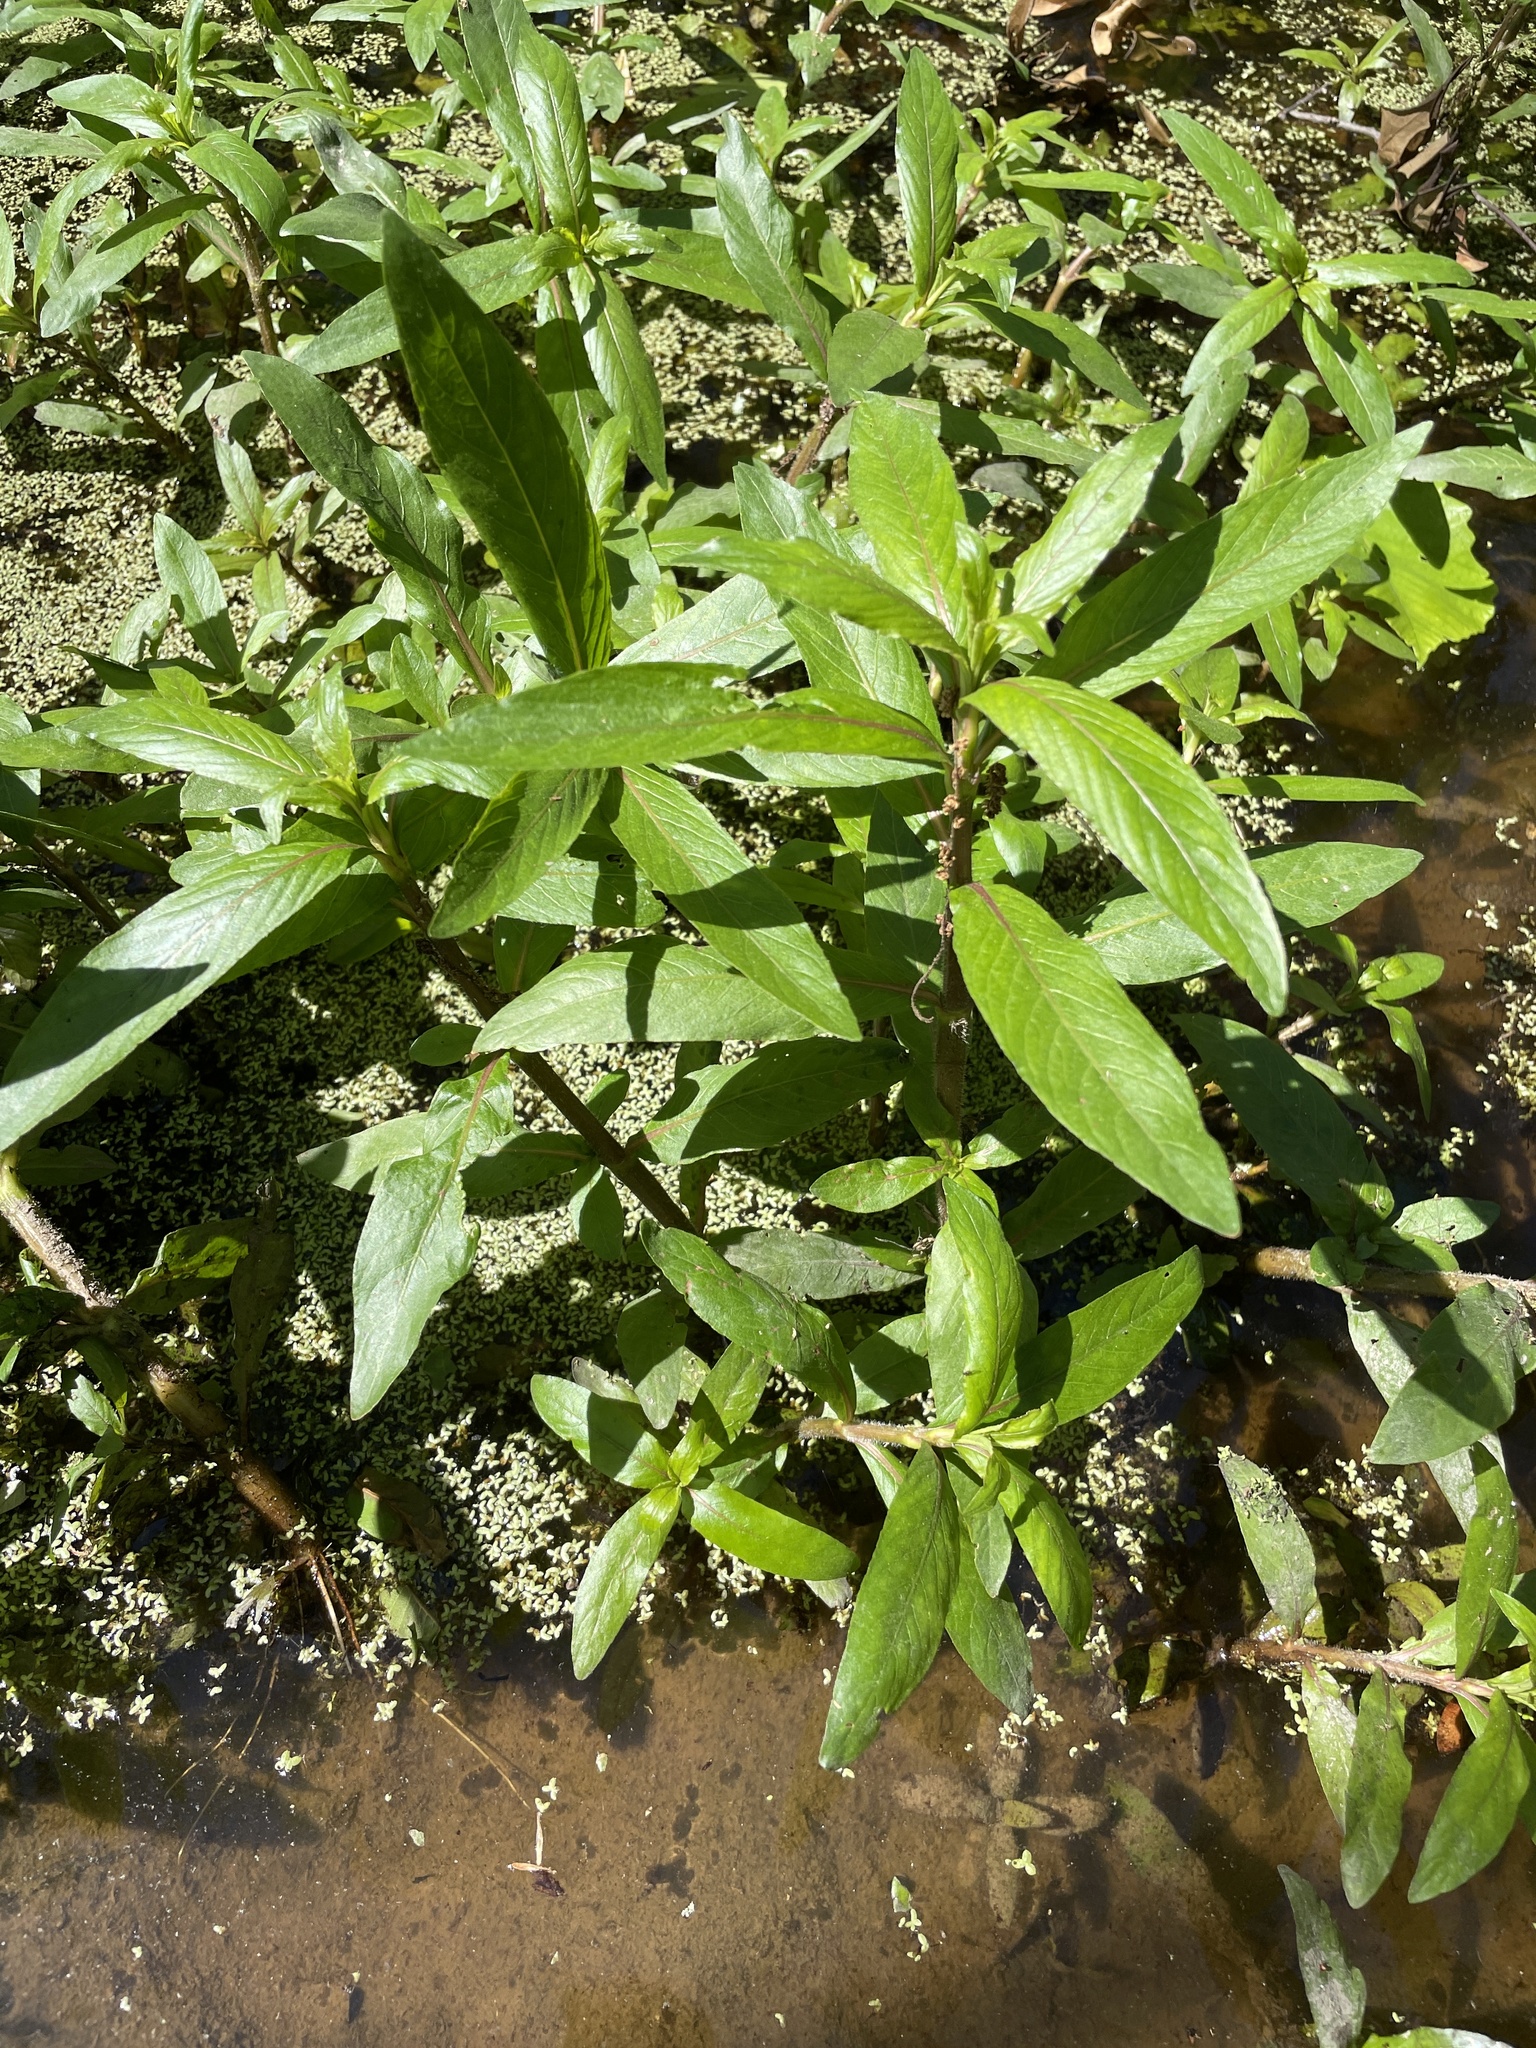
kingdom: Plantae
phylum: Tracheophyta
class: Magnoliopsida
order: Caryophyllales
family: Amaranthaceae
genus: Alternanthera
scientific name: Alternanthera philoxeroides
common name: Alligatorweed
